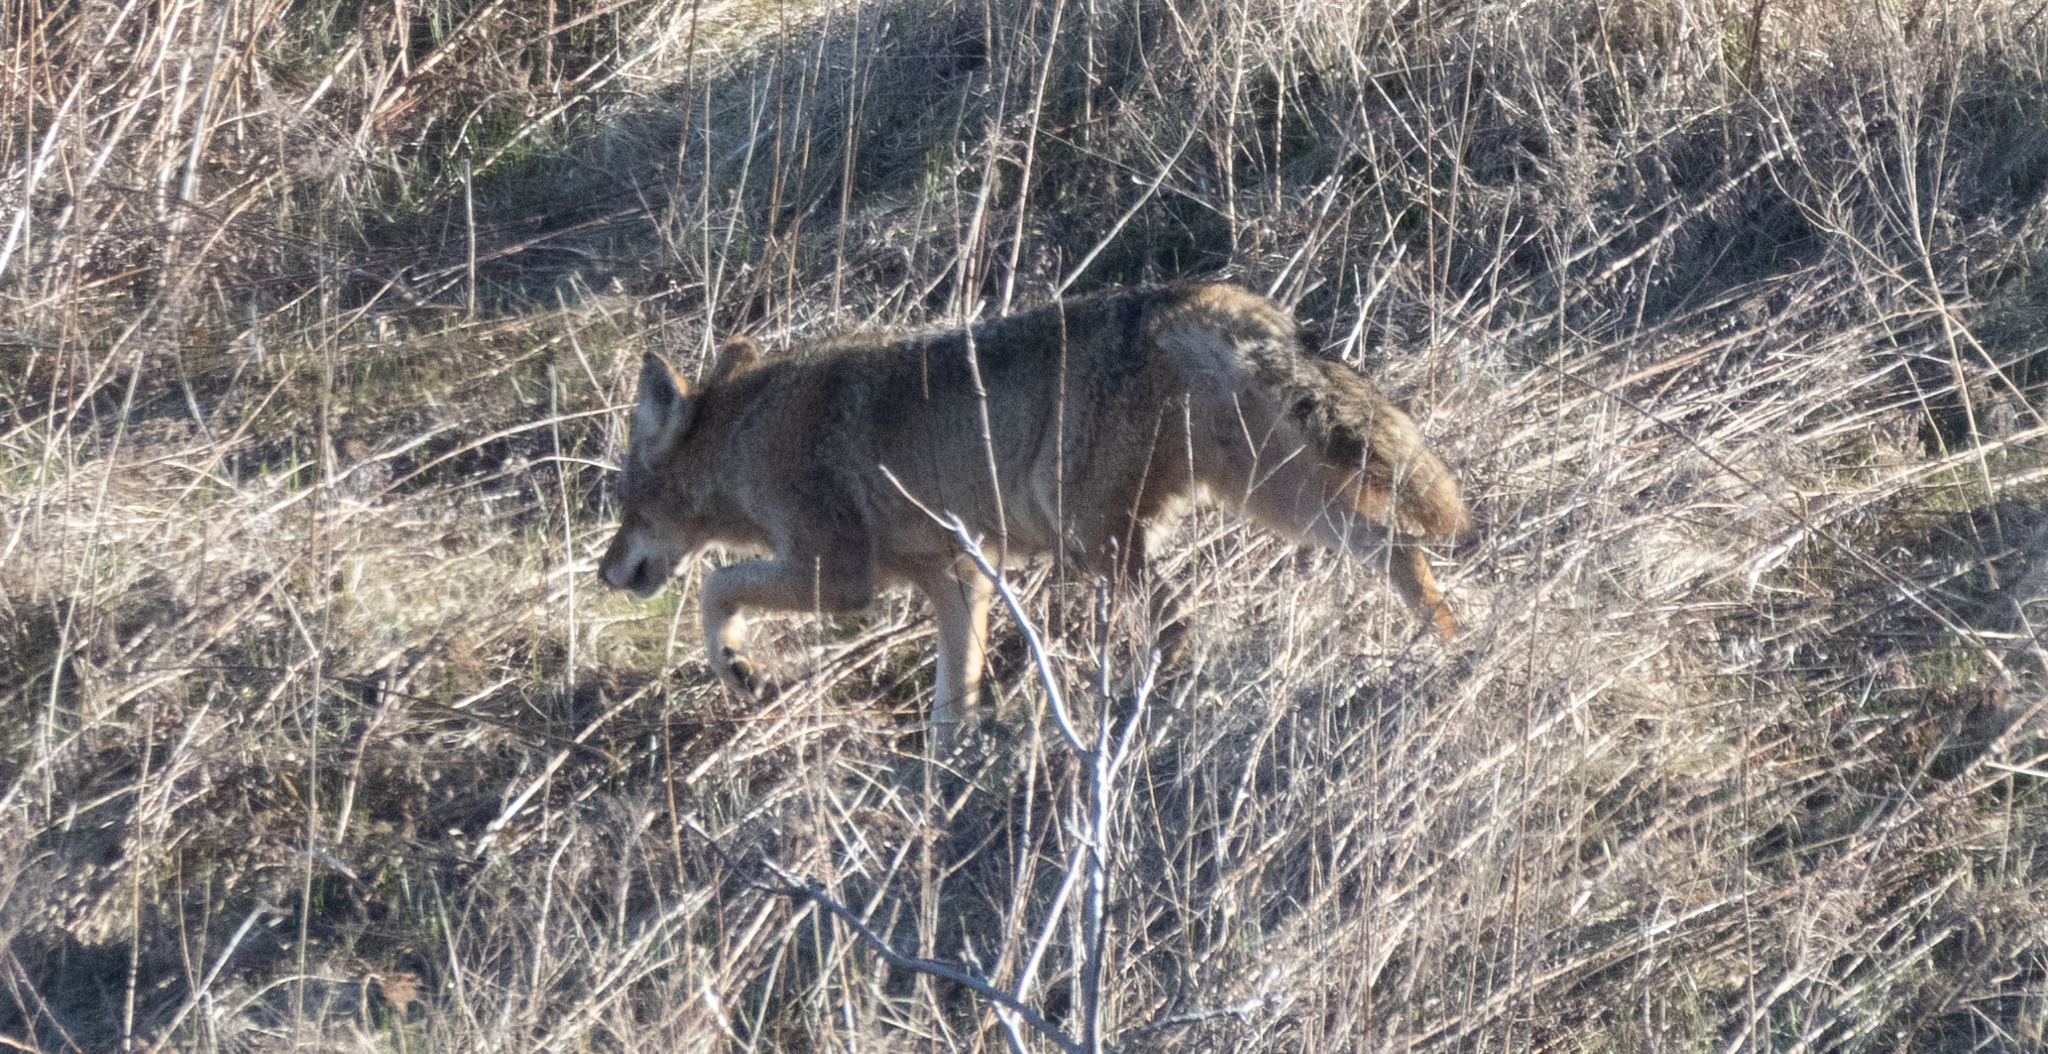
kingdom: Animalia
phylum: Chordata
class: Mammalia
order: Carnivora
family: Canidae
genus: Canis
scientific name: Canis latrans
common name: Coyote
